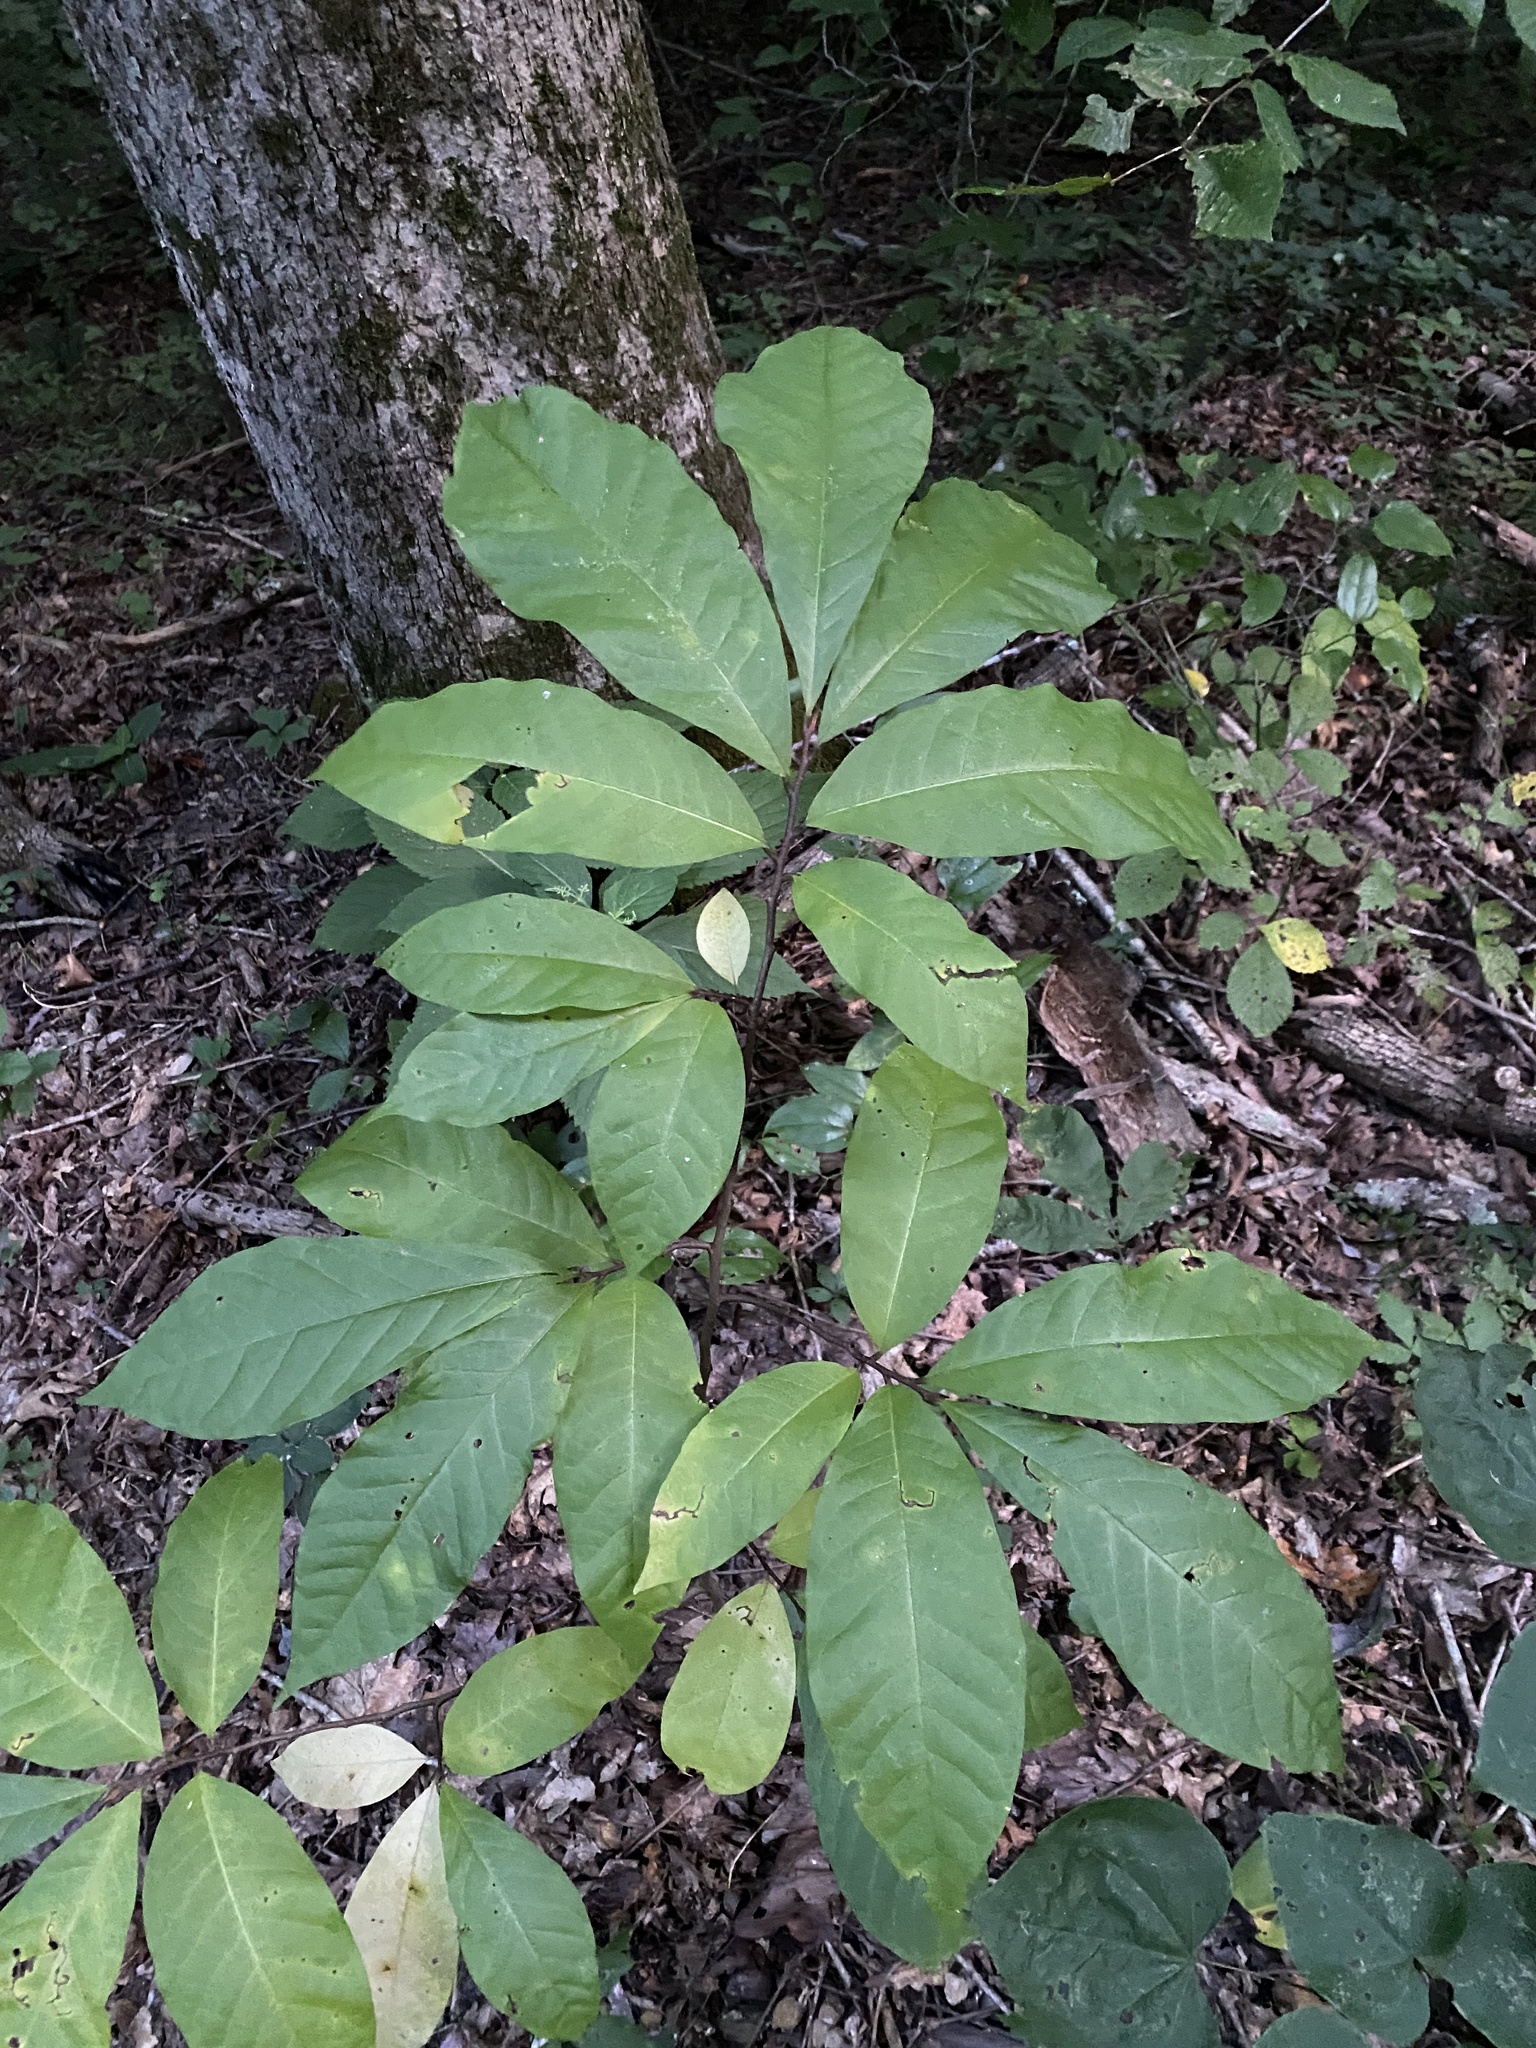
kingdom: Plantae
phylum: Tracheophyta
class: Magnoliopsida
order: Magnoliales
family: Annonaceae
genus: Asimina
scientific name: Asimina triloba
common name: Dog-banana
